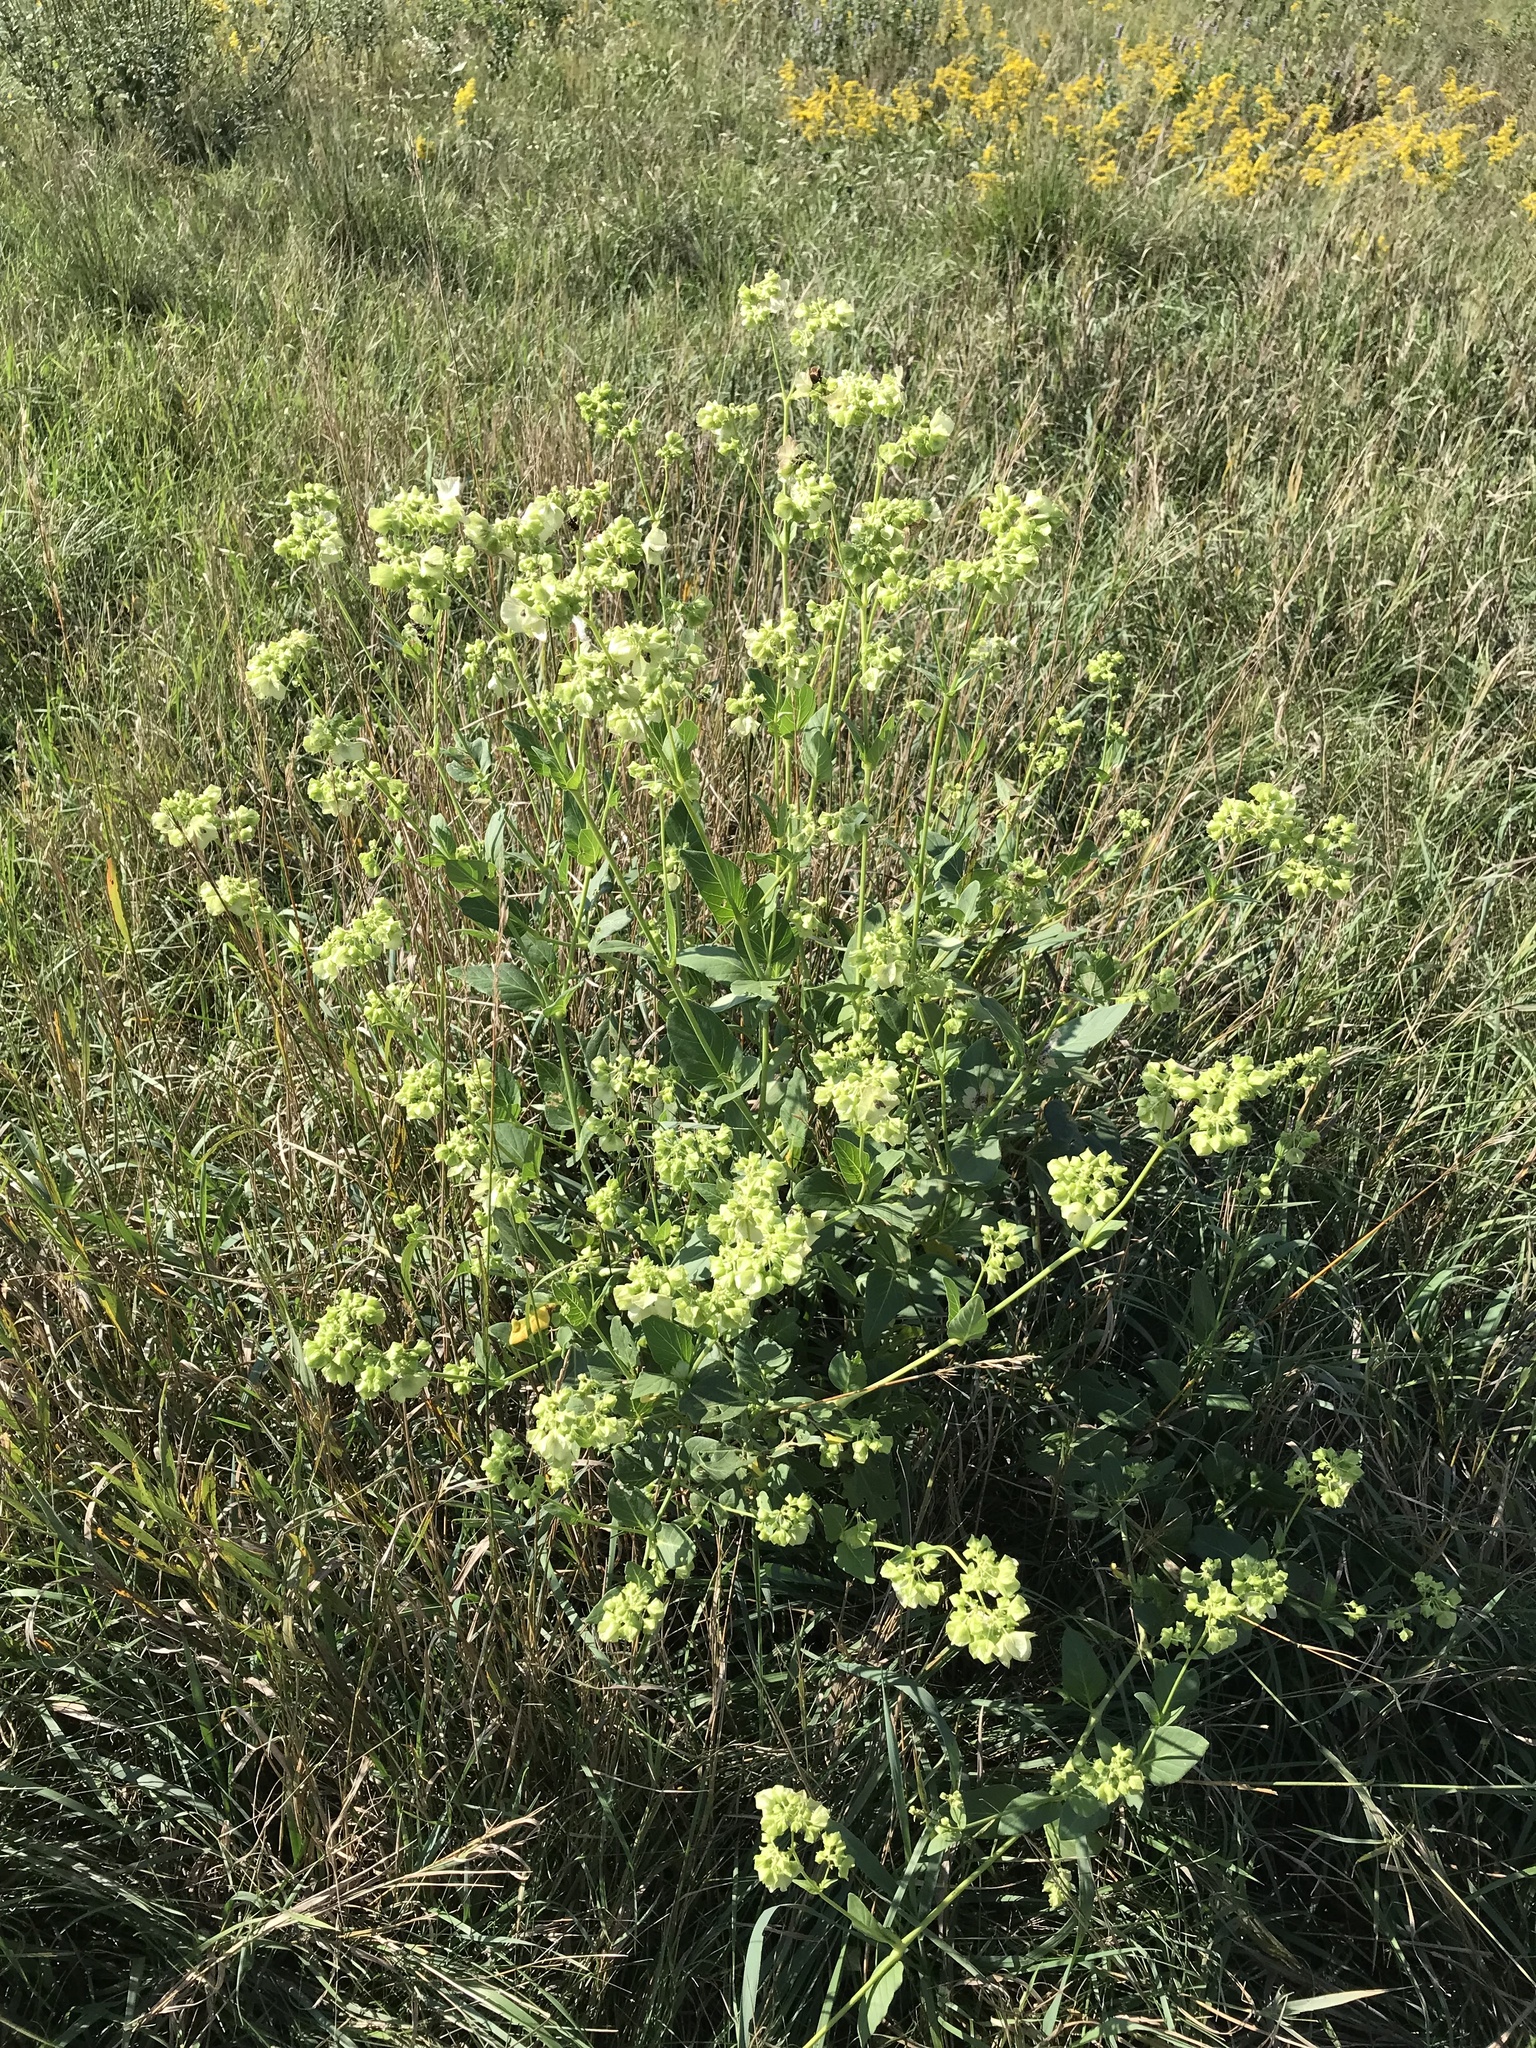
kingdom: Plantae
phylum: Tracheophyta
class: Magnoliopsida
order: Caryophyllales
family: Nyctaginaceae
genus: Mirabilis
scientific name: Mirabilis nyctaginea
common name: Umbrella wort
